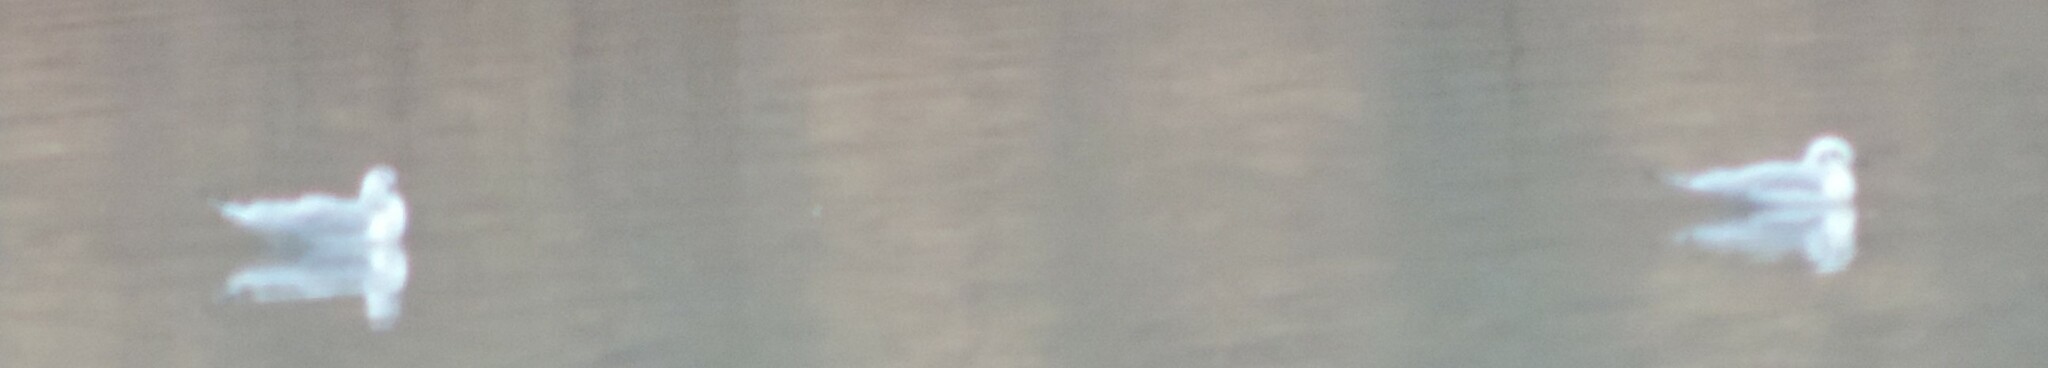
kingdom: Animalia
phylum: Chordata
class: Aves
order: Charadriiformes
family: Laridae
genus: Chroicocephalus
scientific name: Chroicocephalus philadelphia
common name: Bonaparte's gull
